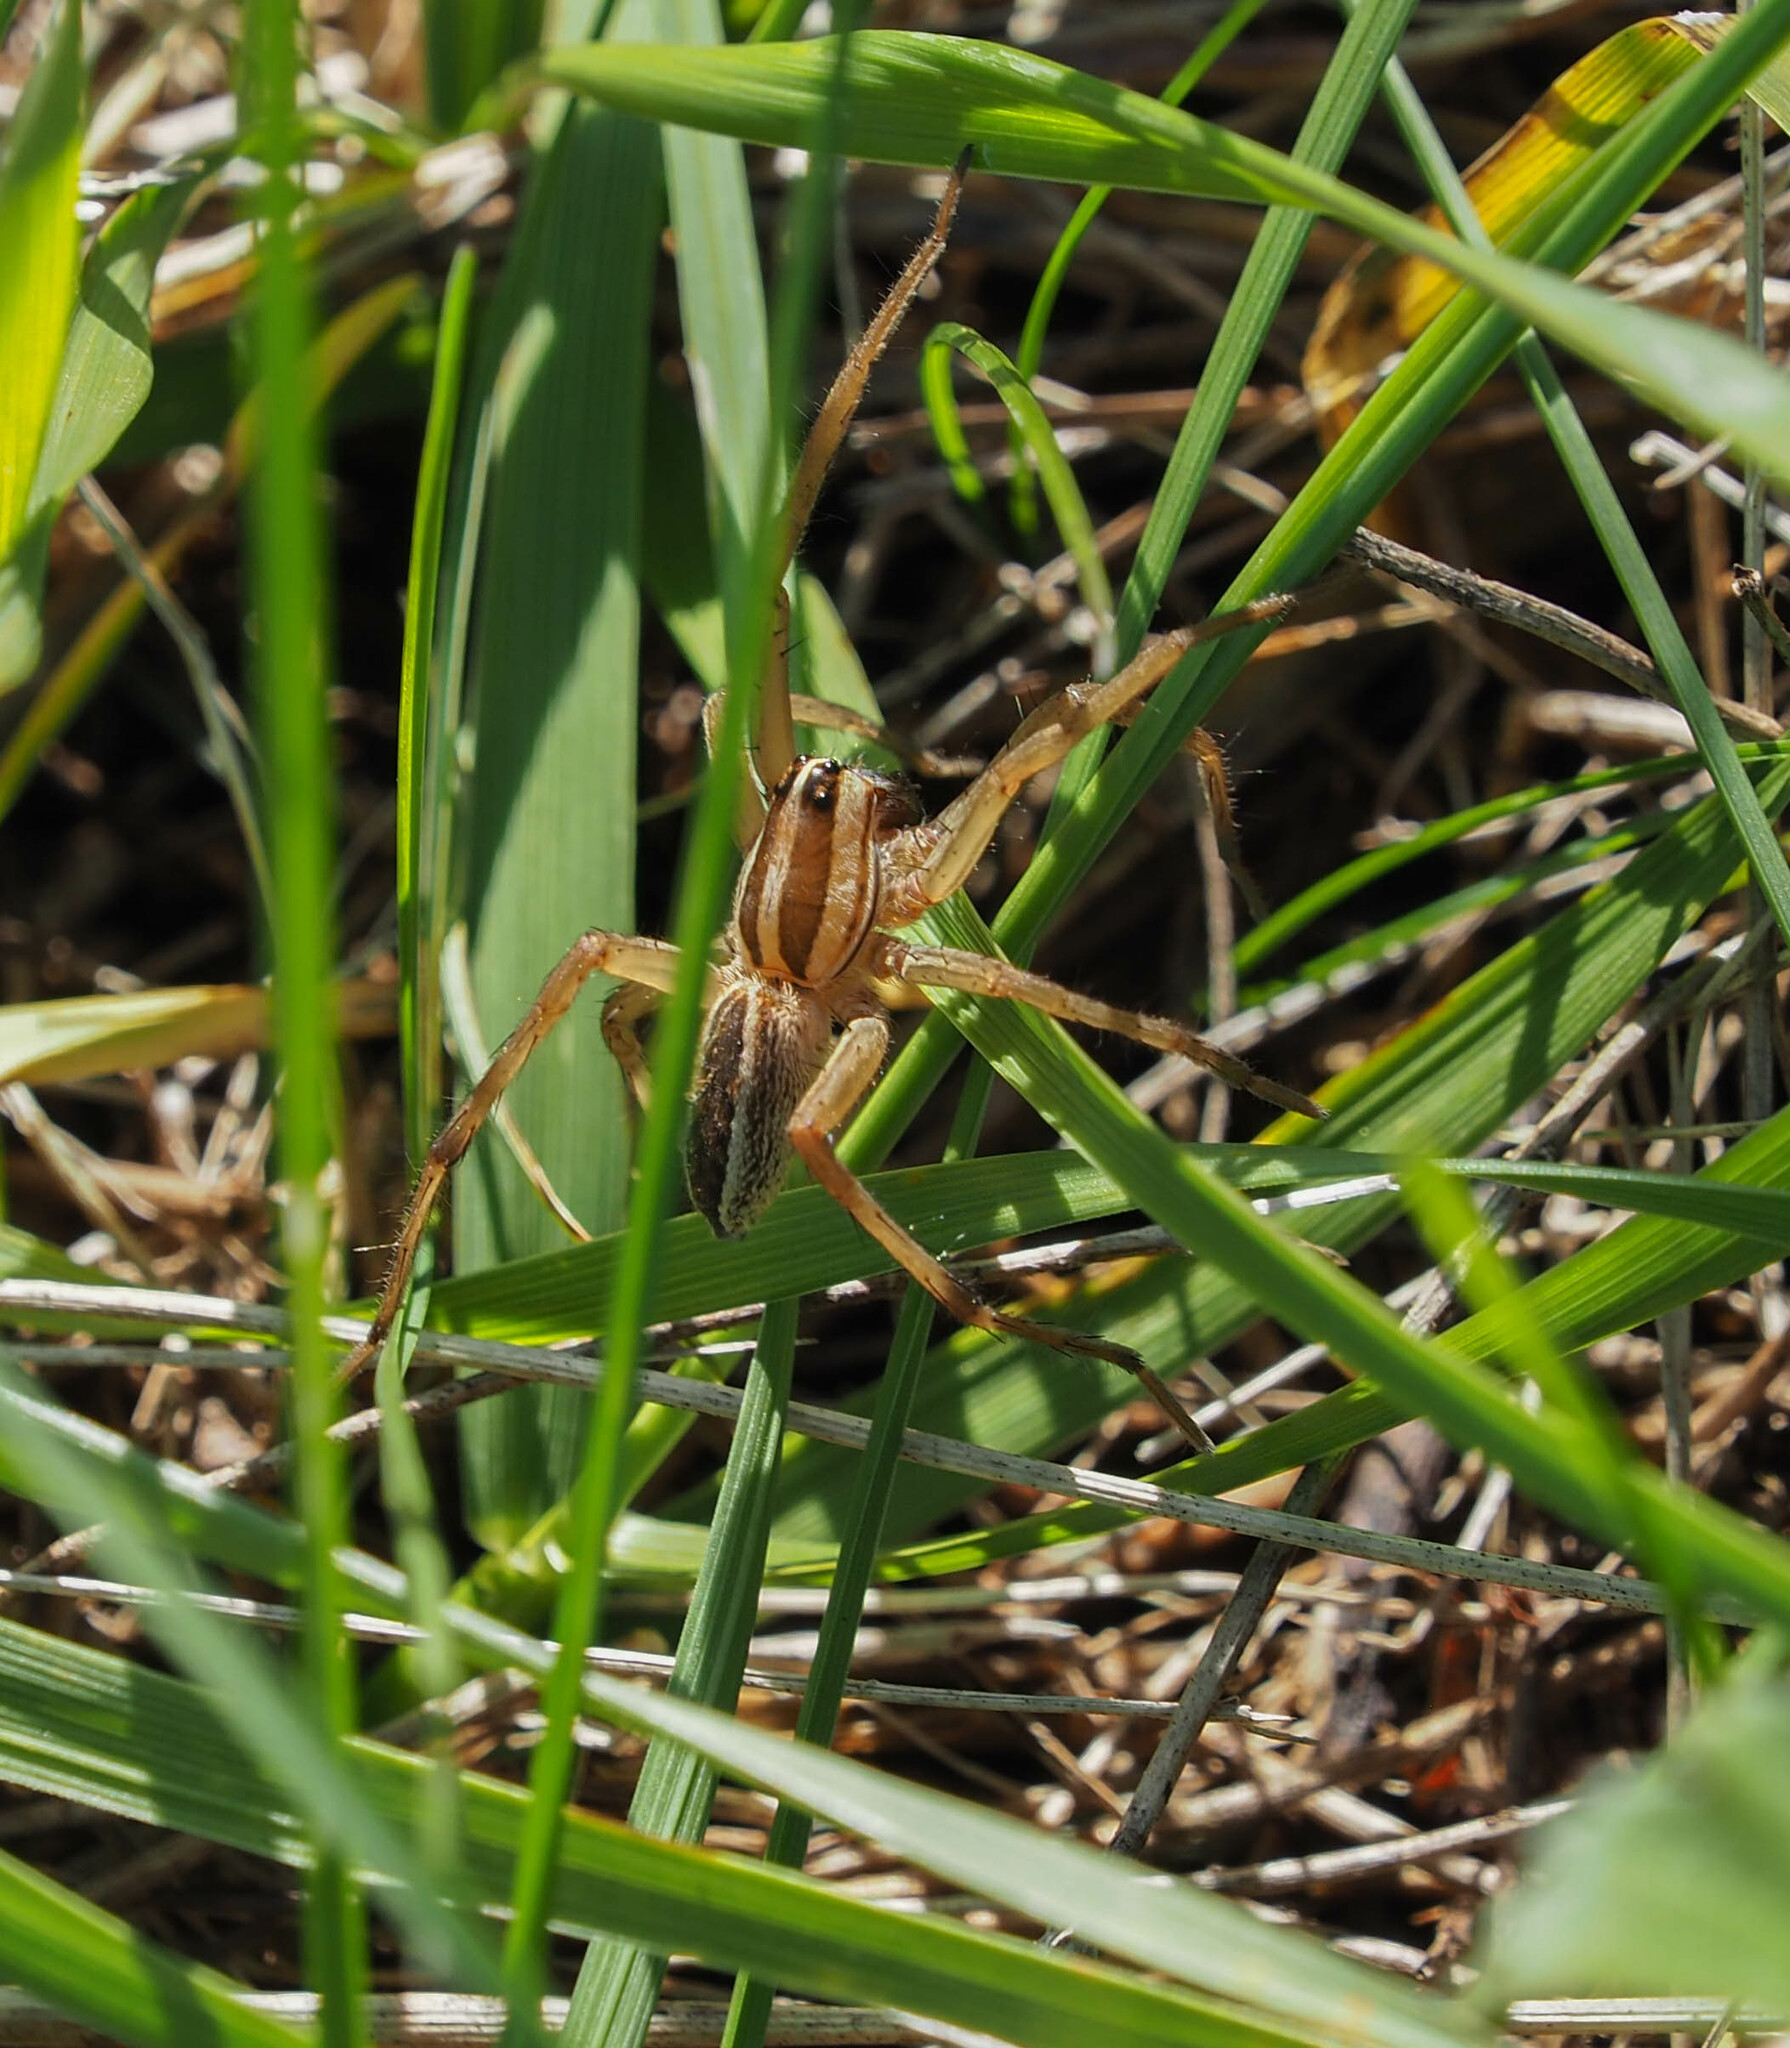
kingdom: Animalia
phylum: Arthropoda
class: Arachnida
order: Araneae
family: Lycosidae
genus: Rabidosa
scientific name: Rabidosa rabida
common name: Rabid wolf spider
